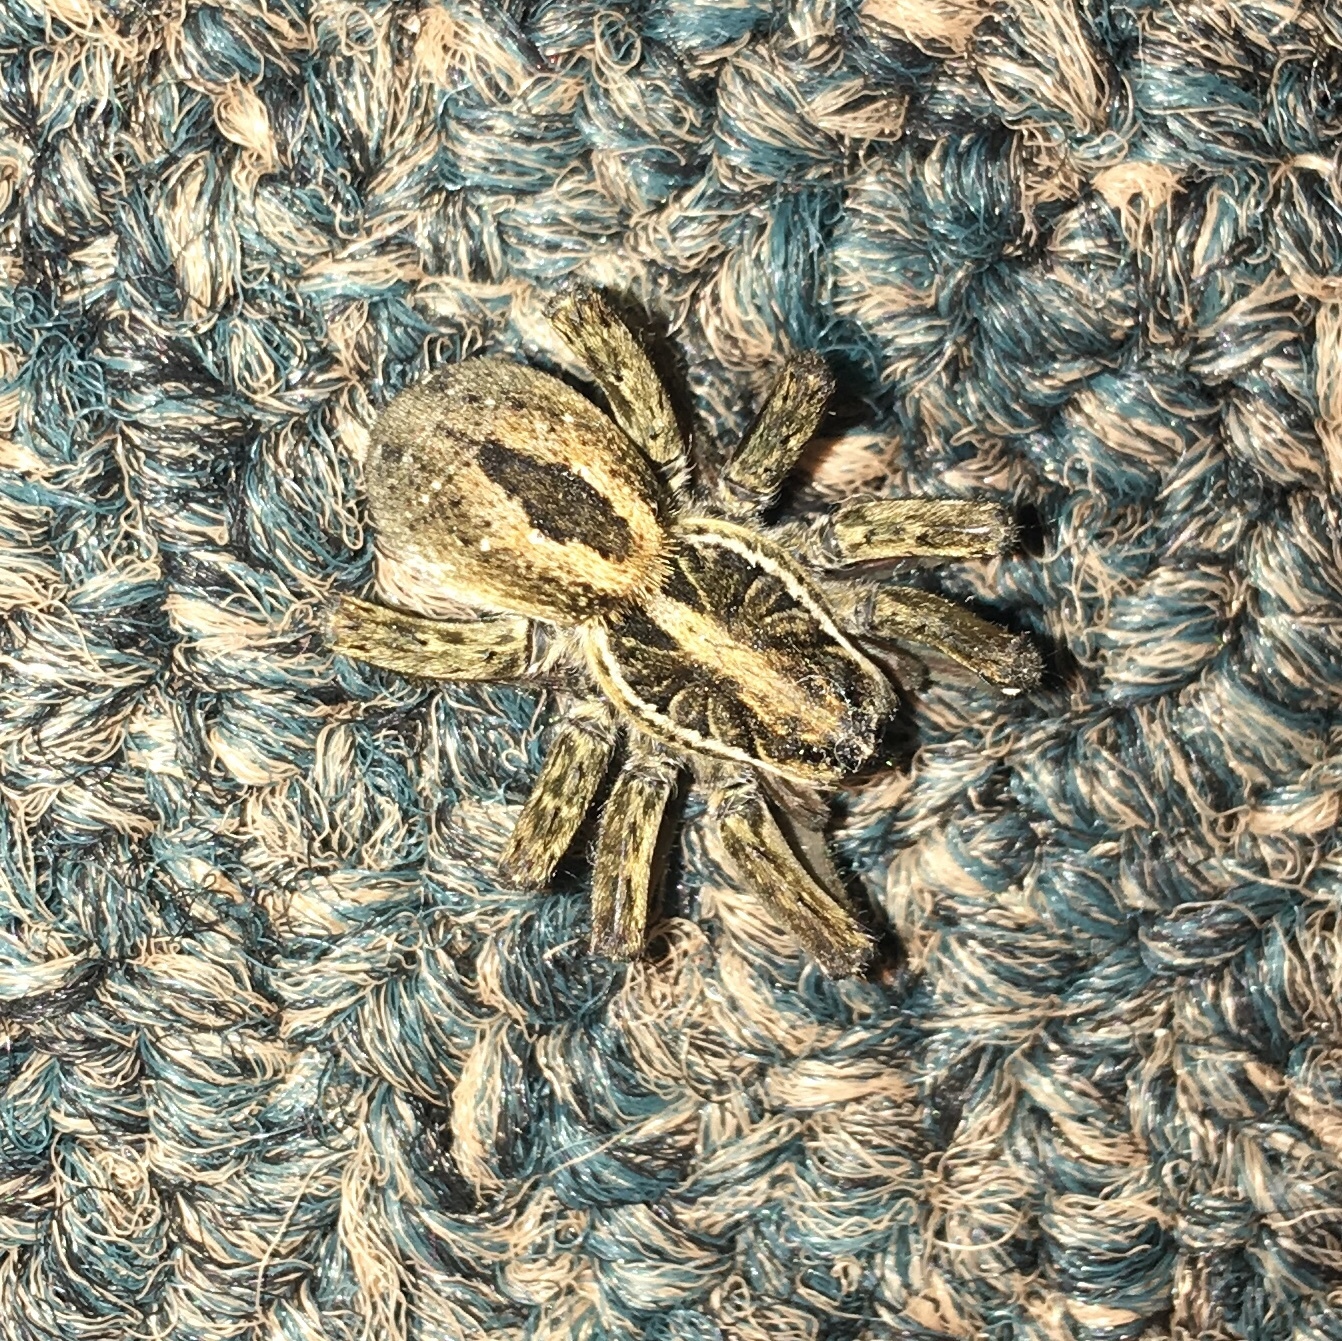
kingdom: Animalia
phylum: Arthropoda
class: Arachnida
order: Araneae
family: Lycosidae
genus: Tigrosa
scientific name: Tigrosa annexa
